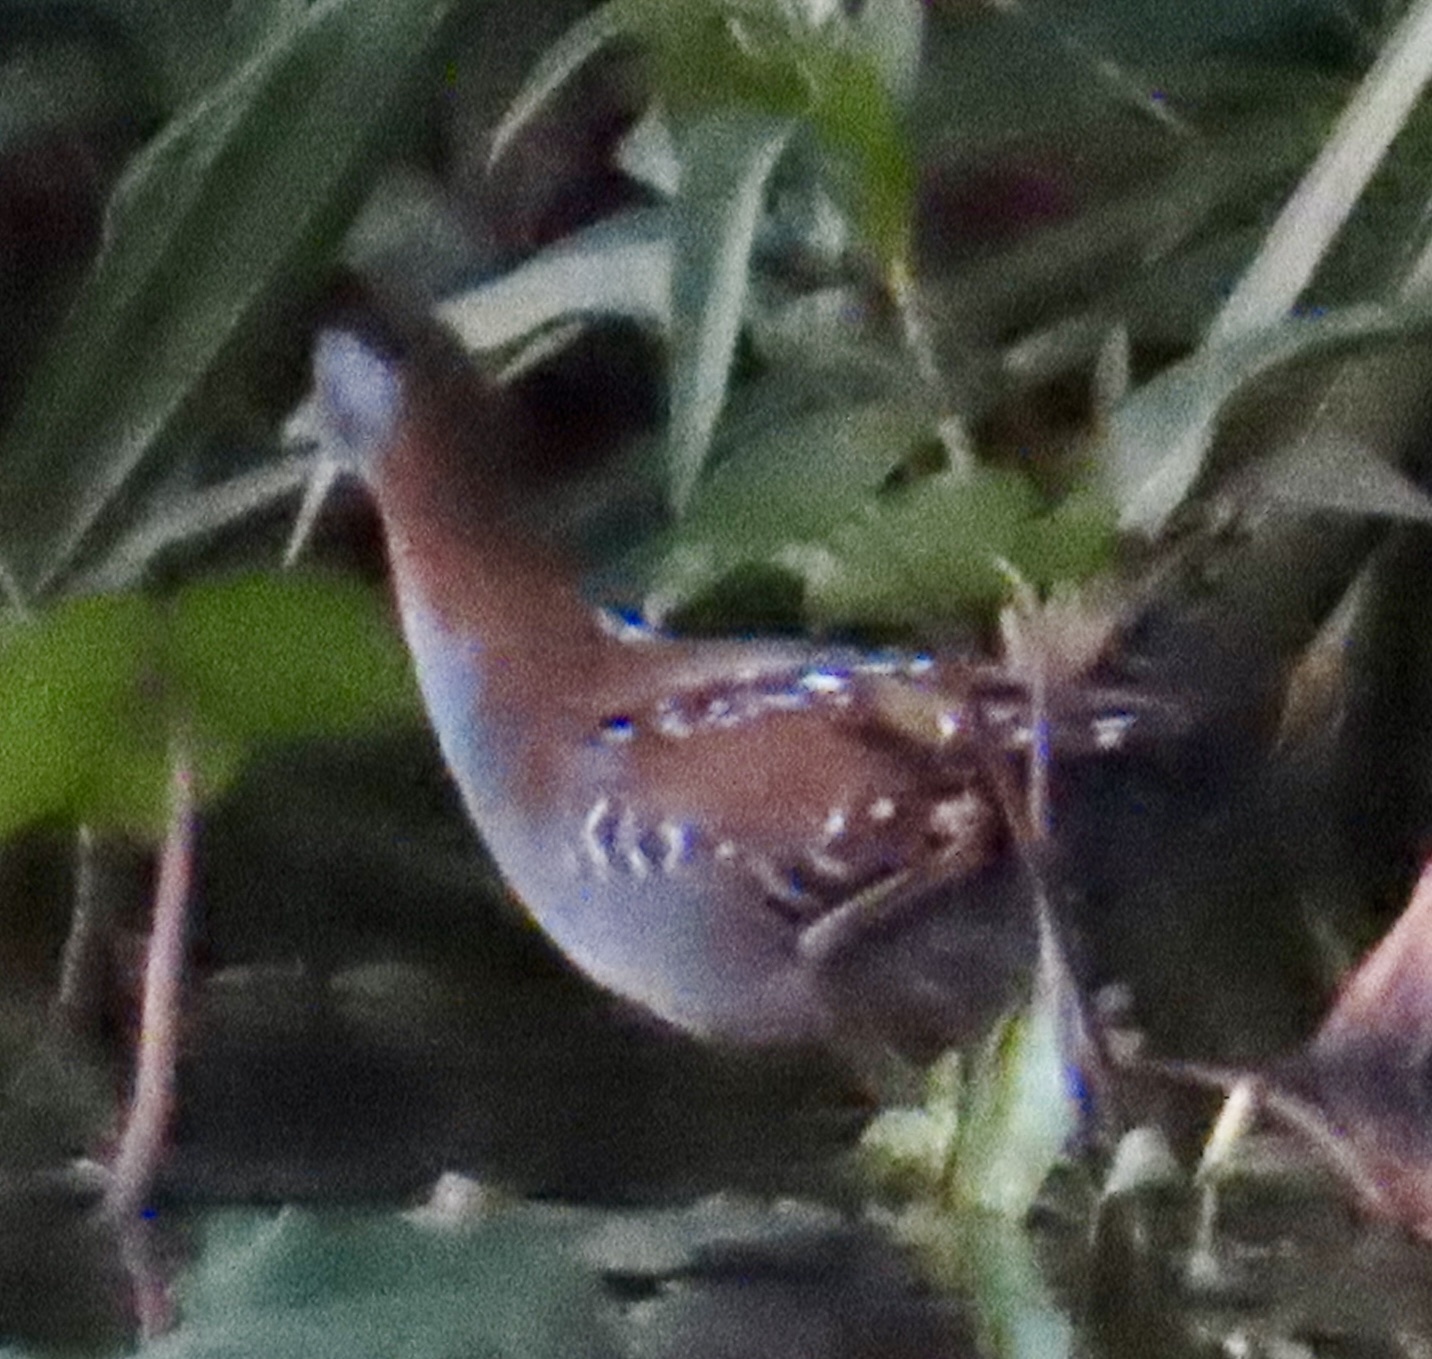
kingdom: Animalia
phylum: Chordata
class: Aves
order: Gruiformes
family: Rallidae
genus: Porzana
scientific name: Porzana pusilla
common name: Baillon's crake
